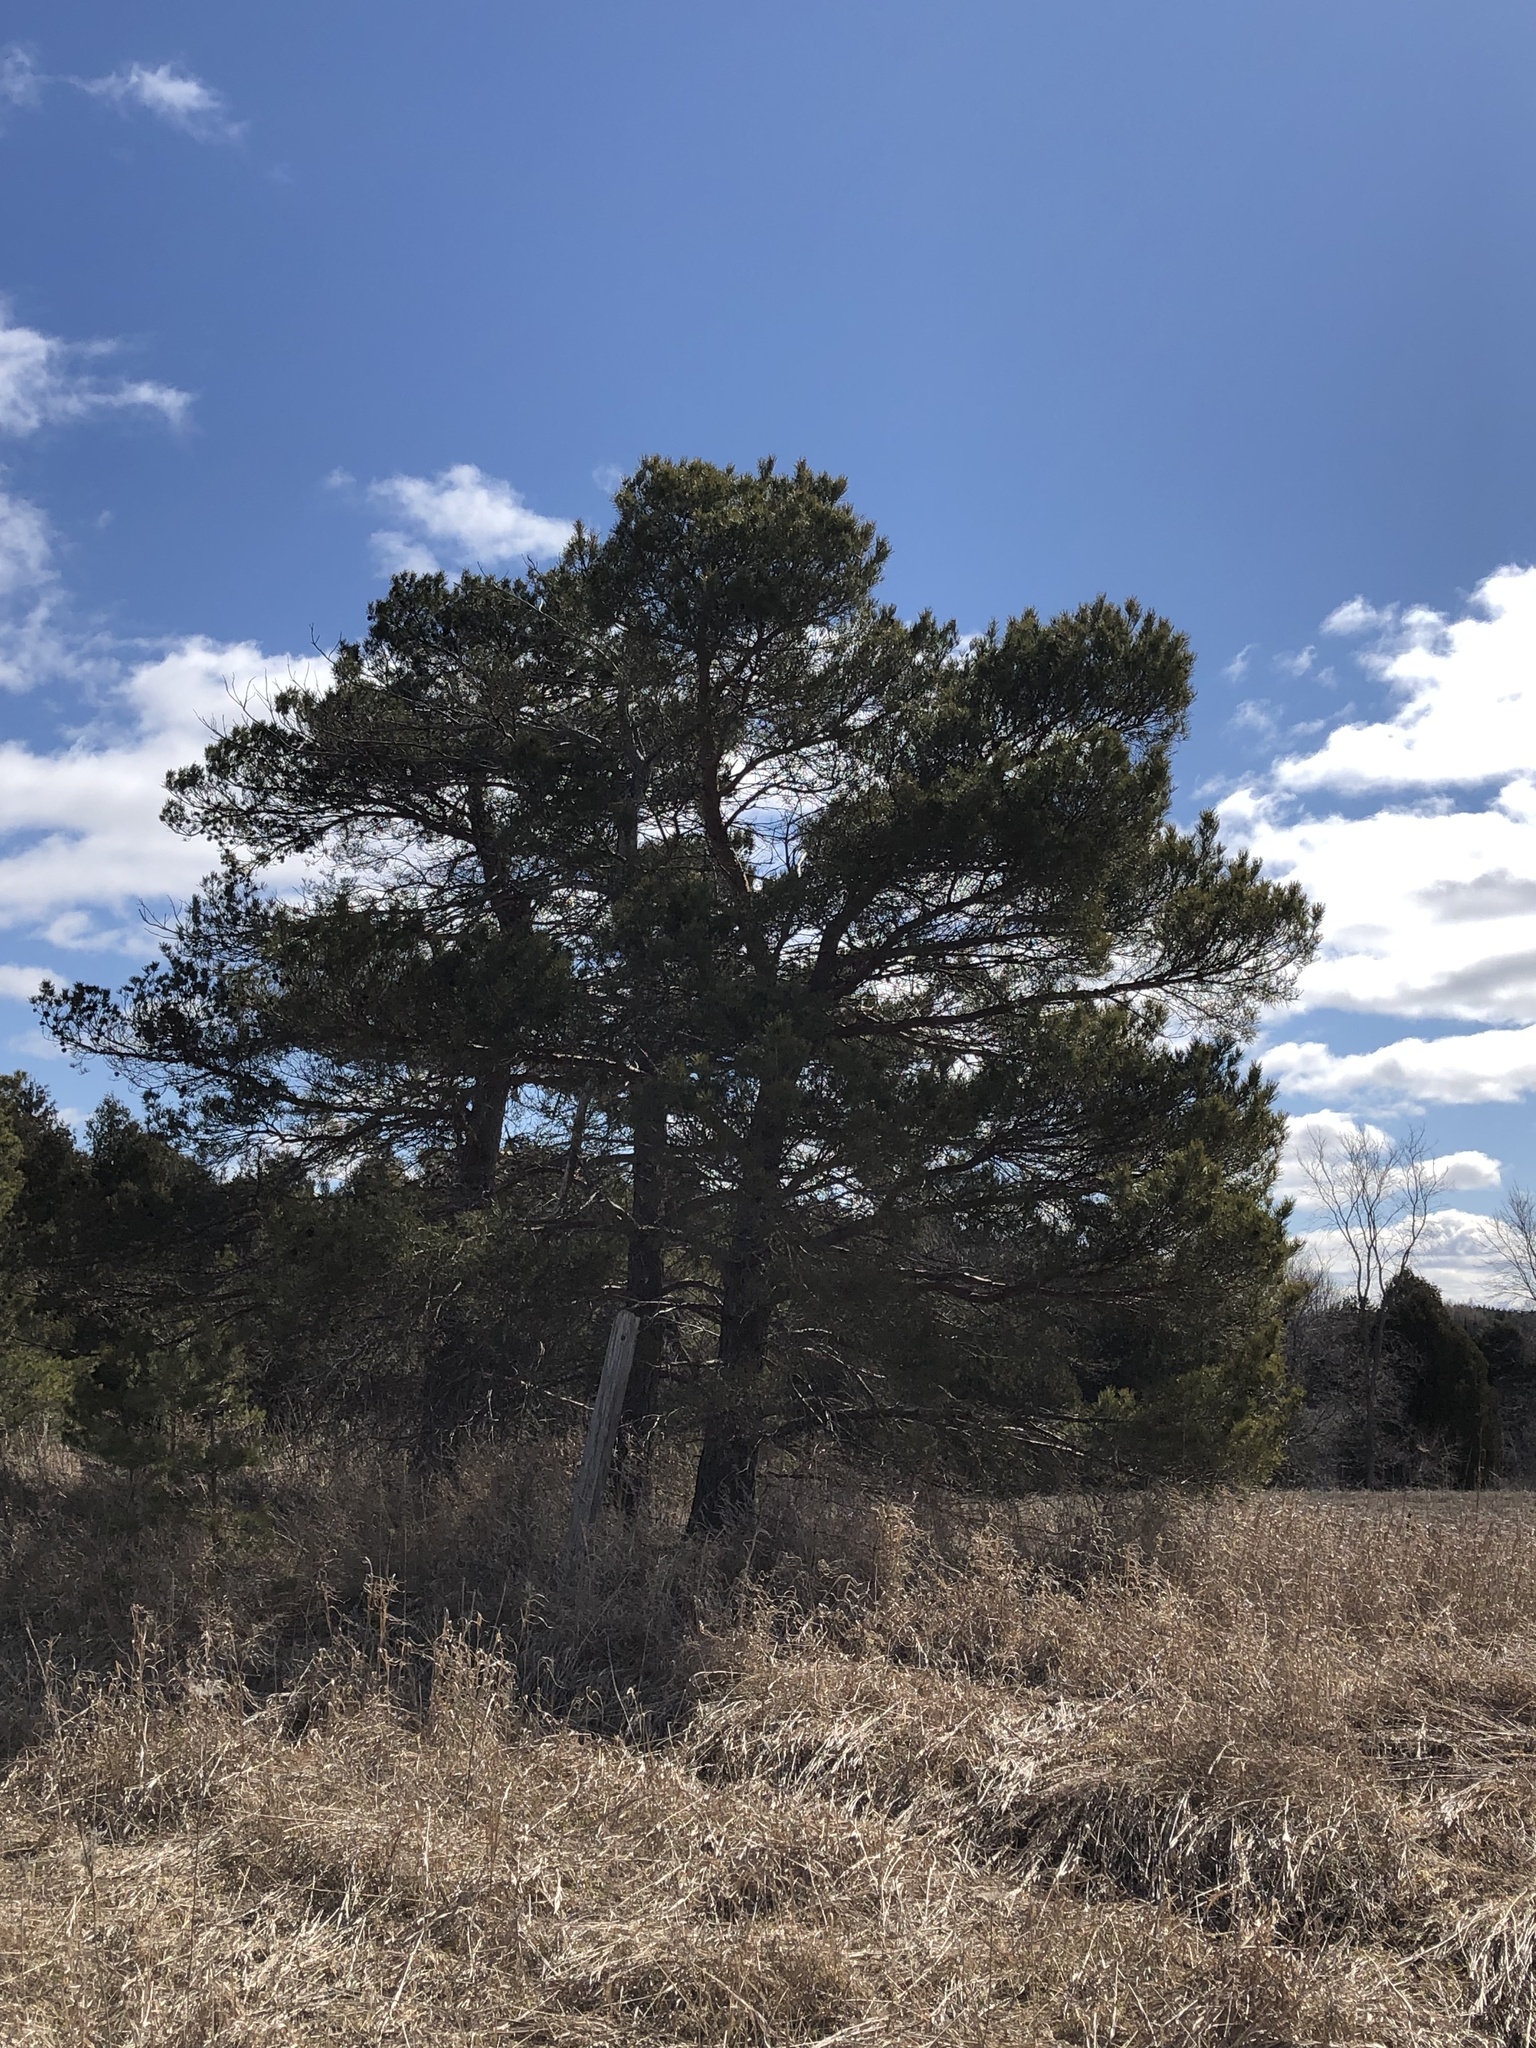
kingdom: Plantae
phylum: Tracheophyta
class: Pinopsida
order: Pinales
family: Pinaceae
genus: Pinus
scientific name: Pinus sylvestris
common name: Scots pine
